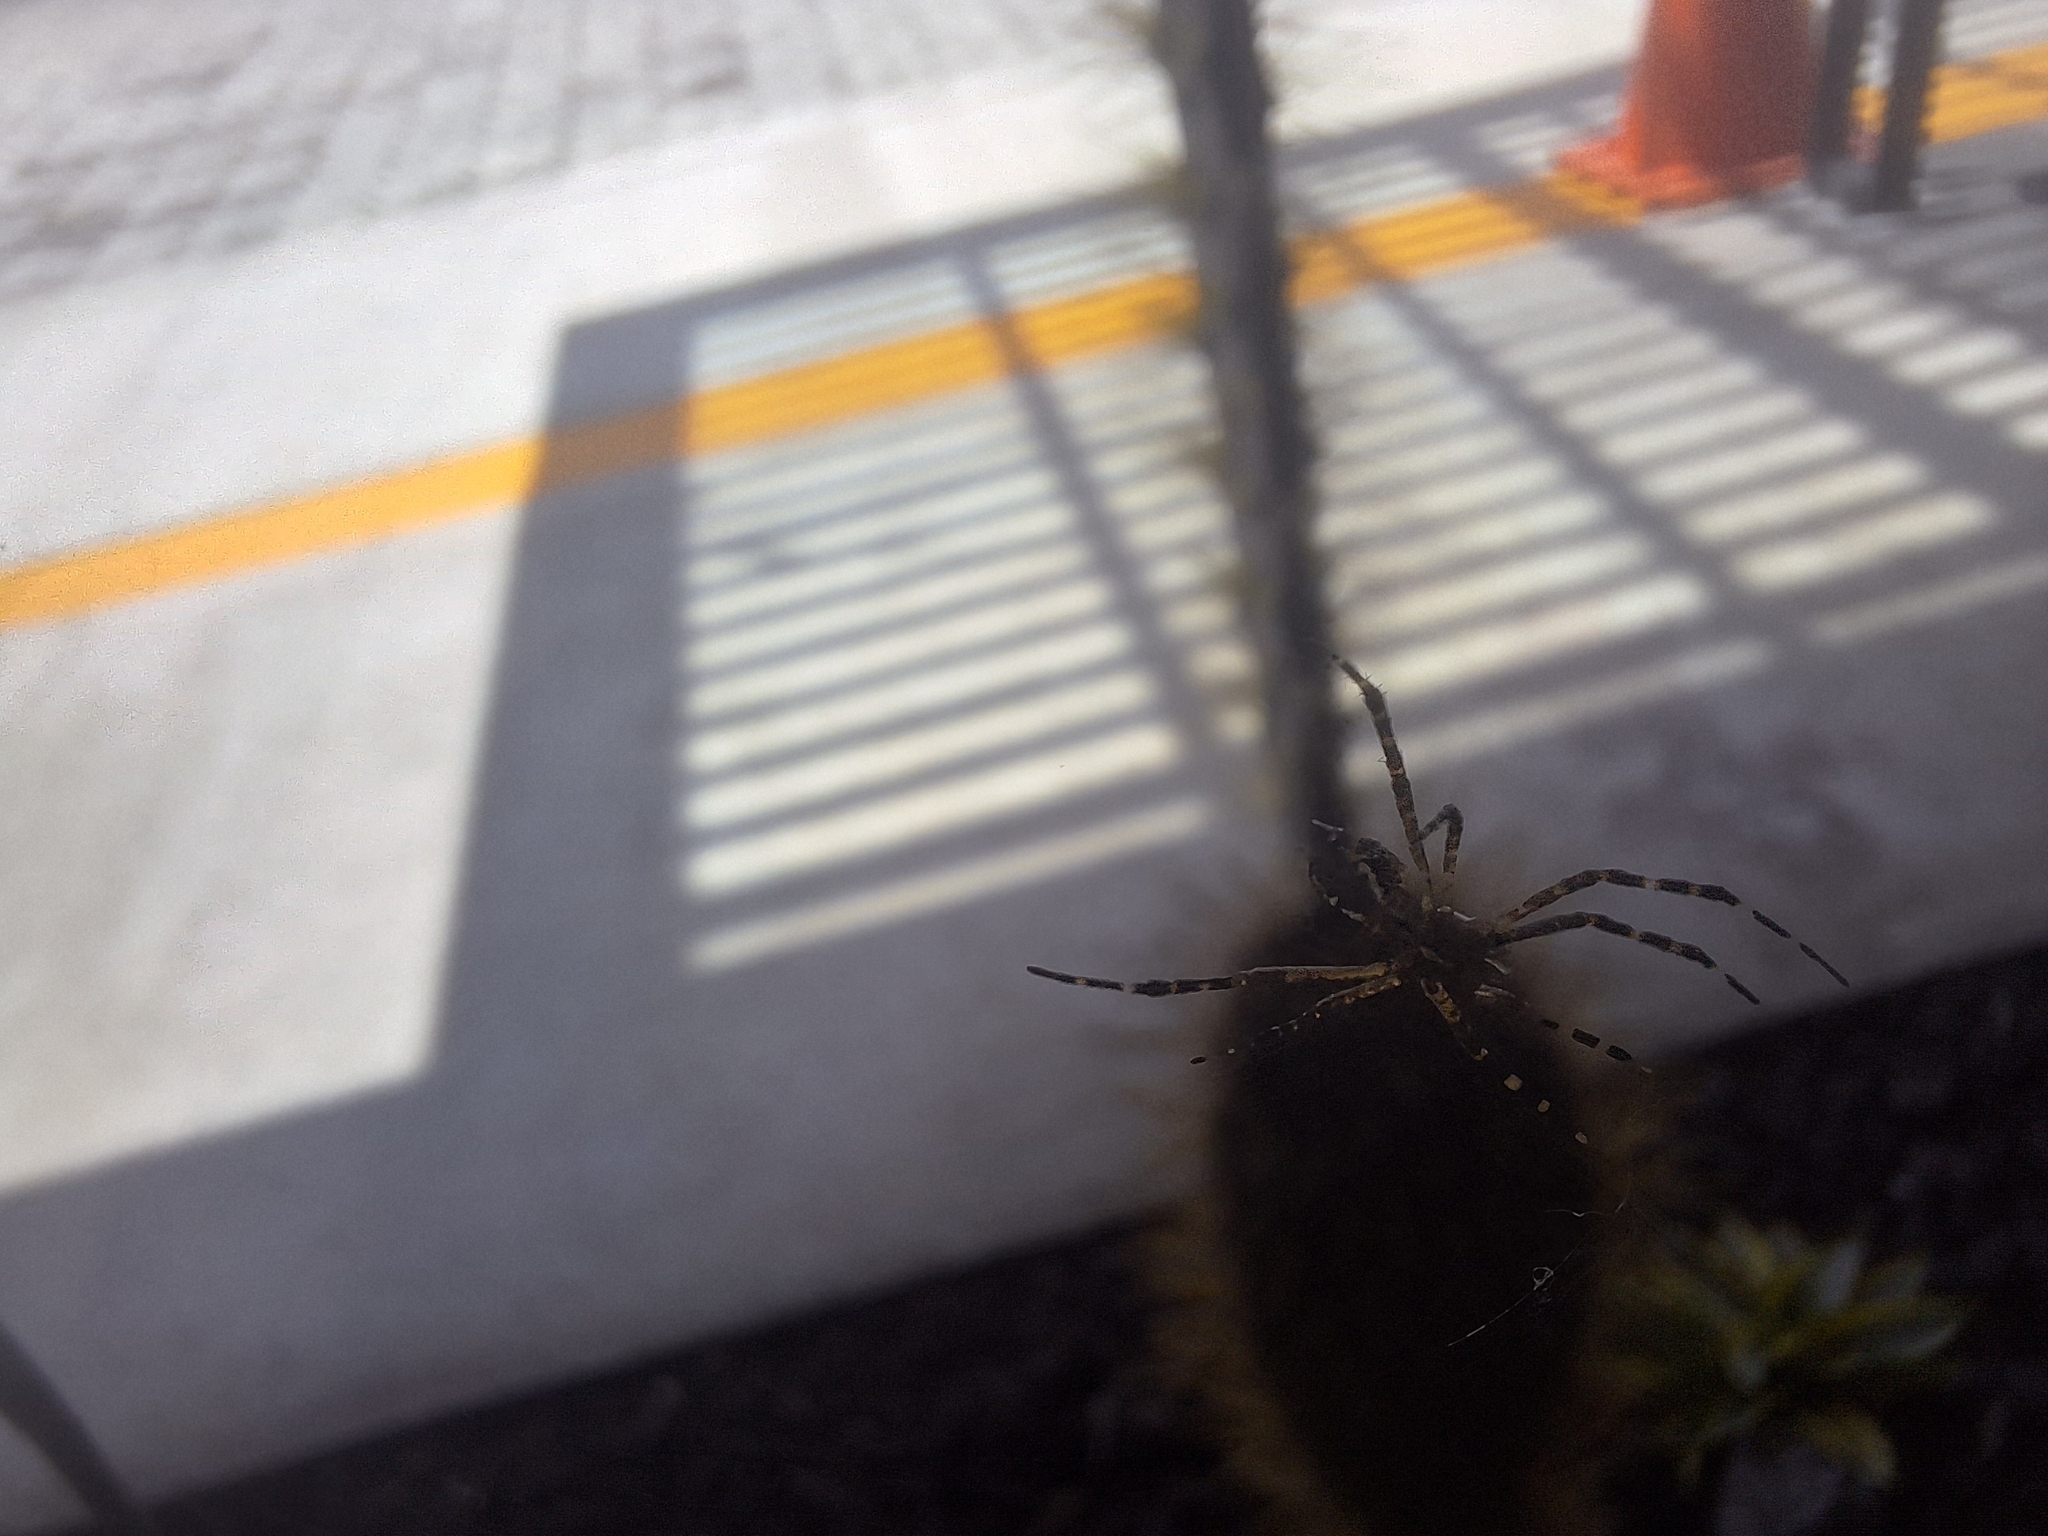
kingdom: Animalia
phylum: Arthropoda
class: Arachnida
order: Araneae
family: Araneidae
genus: Argiope
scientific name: Argiope argentata
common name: Orb weavers
